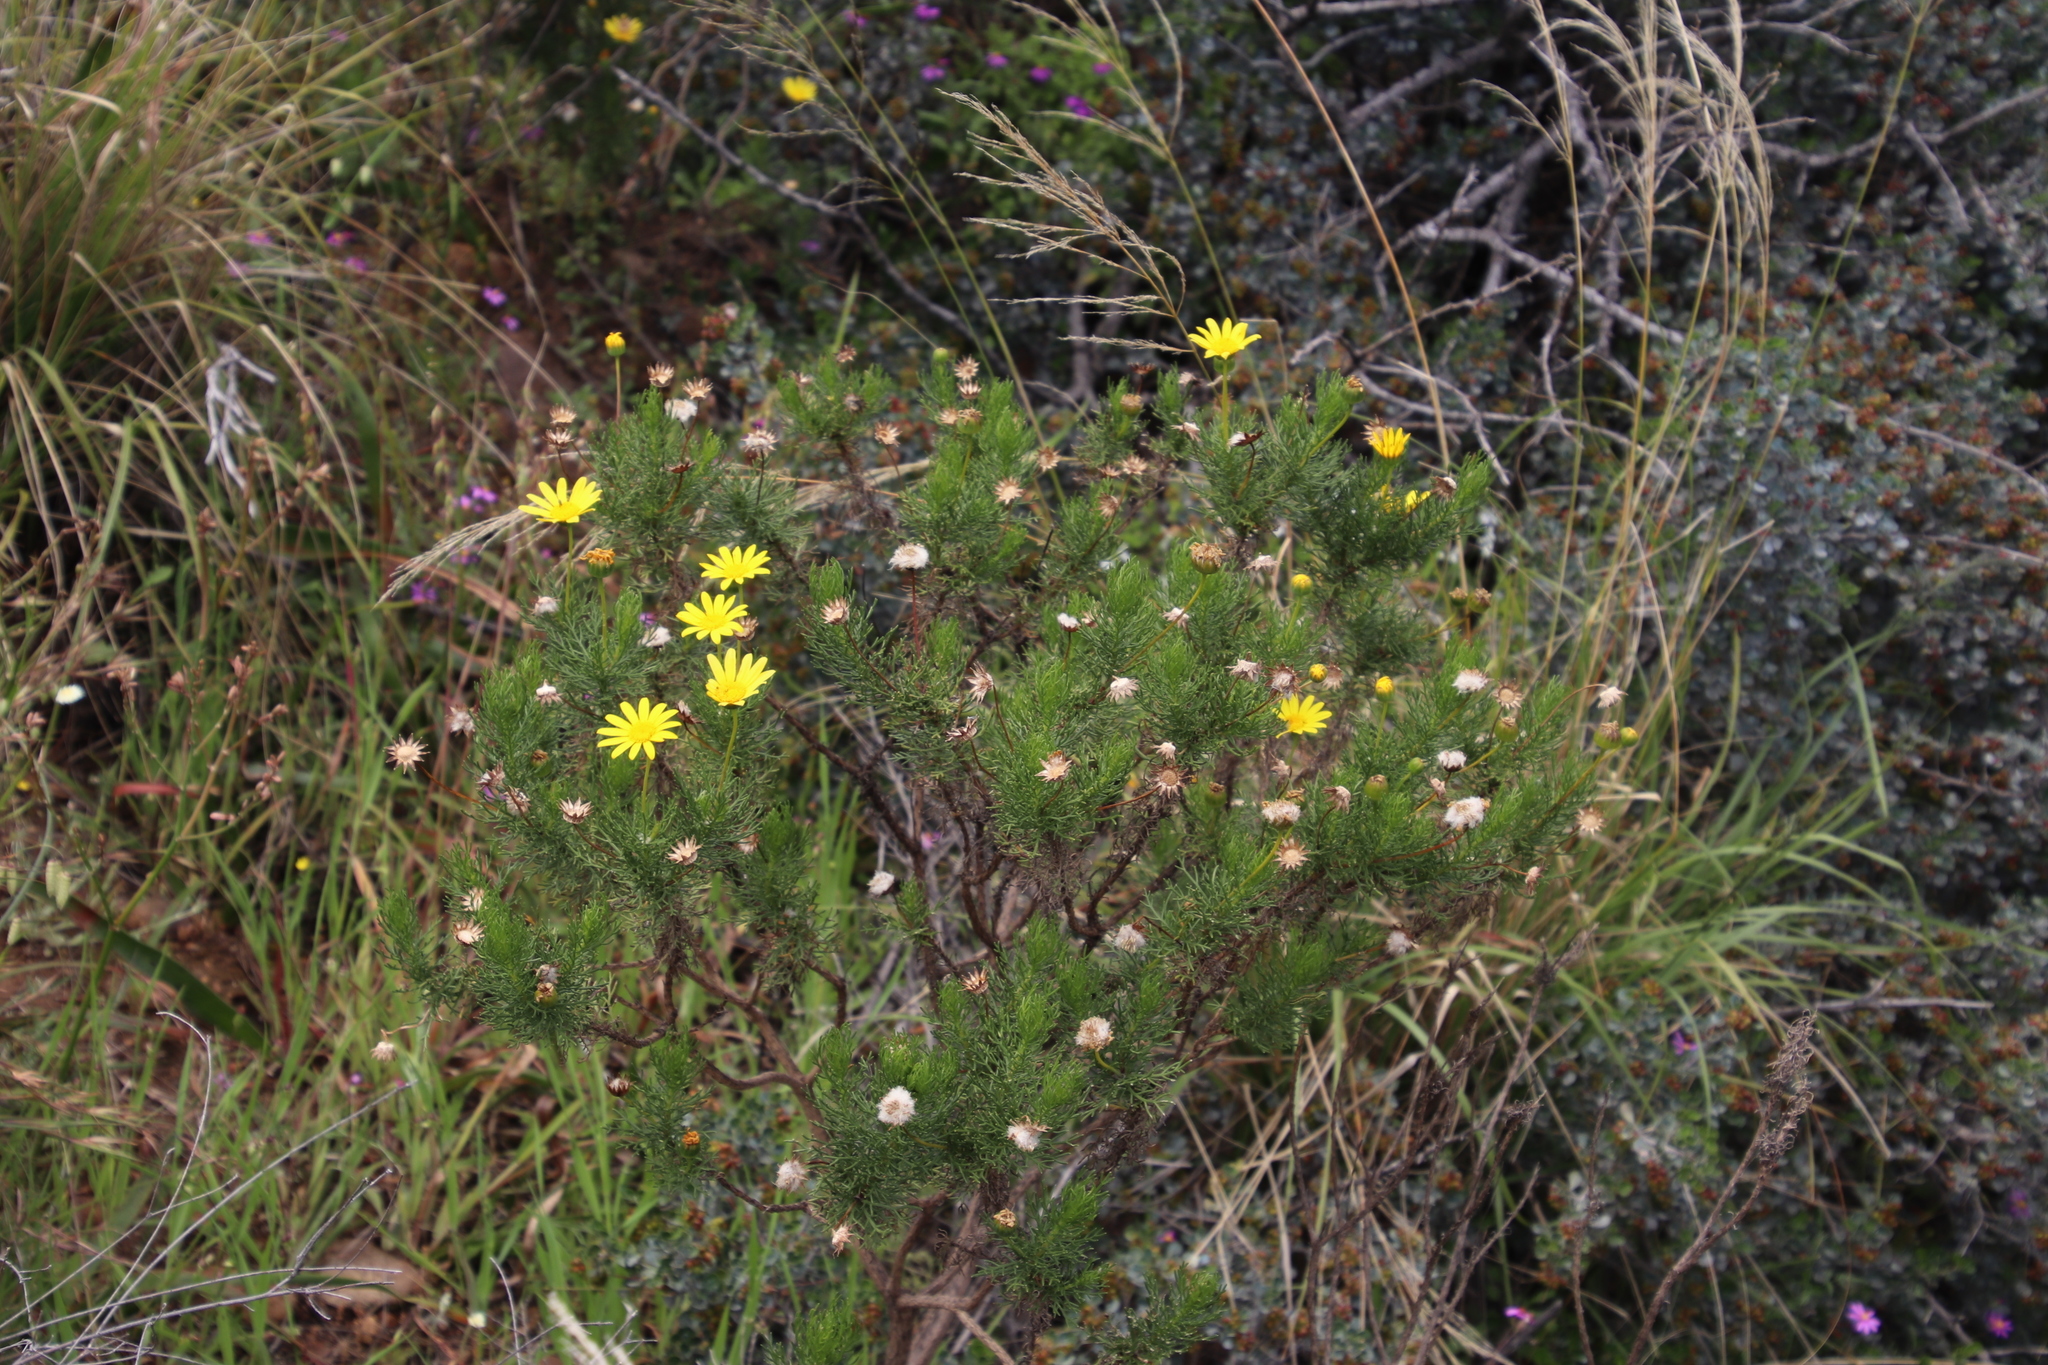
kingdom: Plantae
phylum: Tracheophyta
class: Magnoliopsida
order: Asterales
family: Asteraceae
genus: Euryops
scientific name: Euryops abrotanifolius
